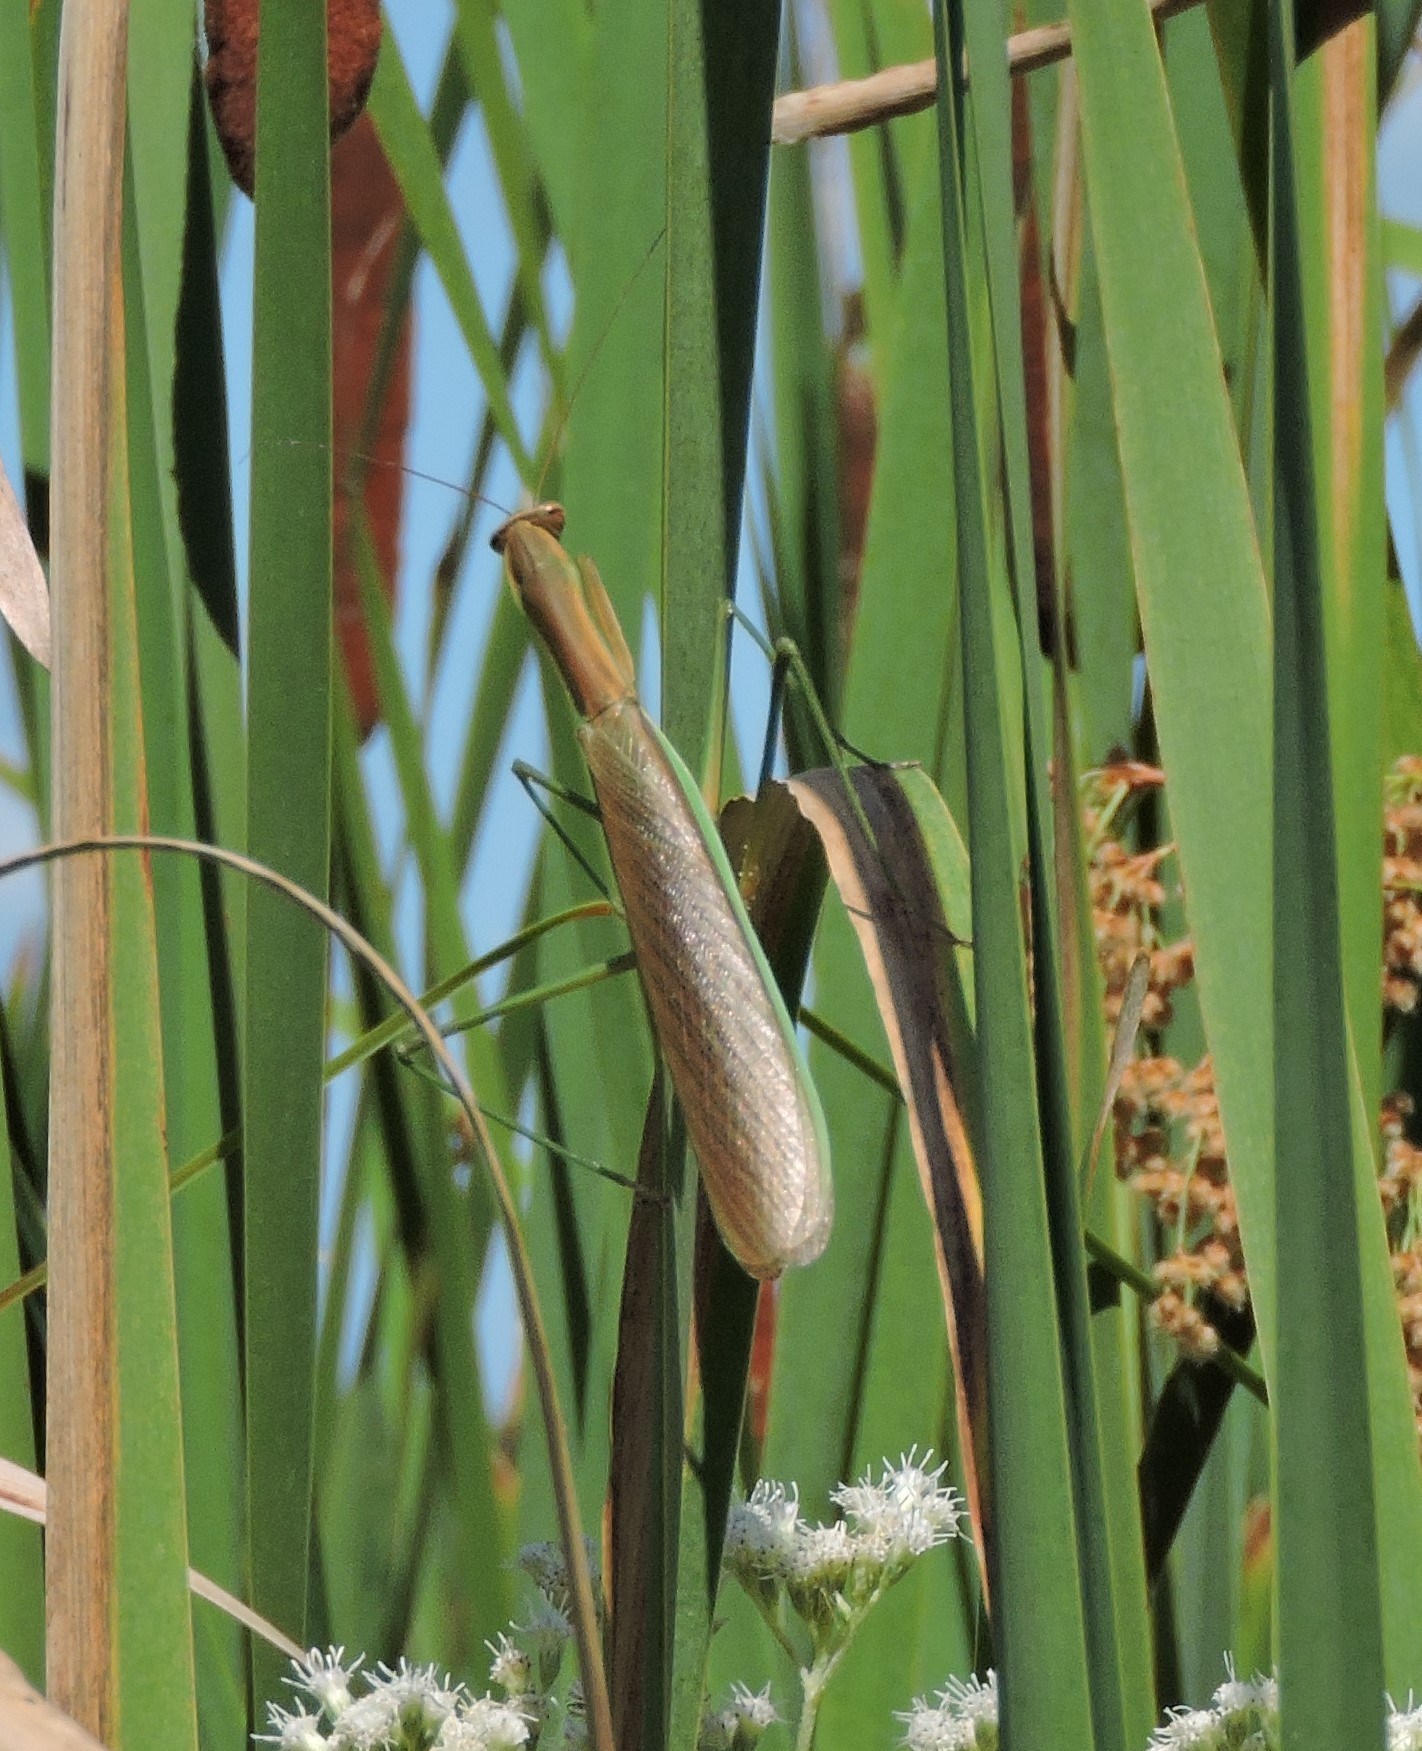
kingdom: Animalia
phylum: Arthropoda
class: Insecta
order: Mantodea
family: Mantidae
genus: Tenodera
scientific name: Tenodera sinensis
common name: Chinese mantis
